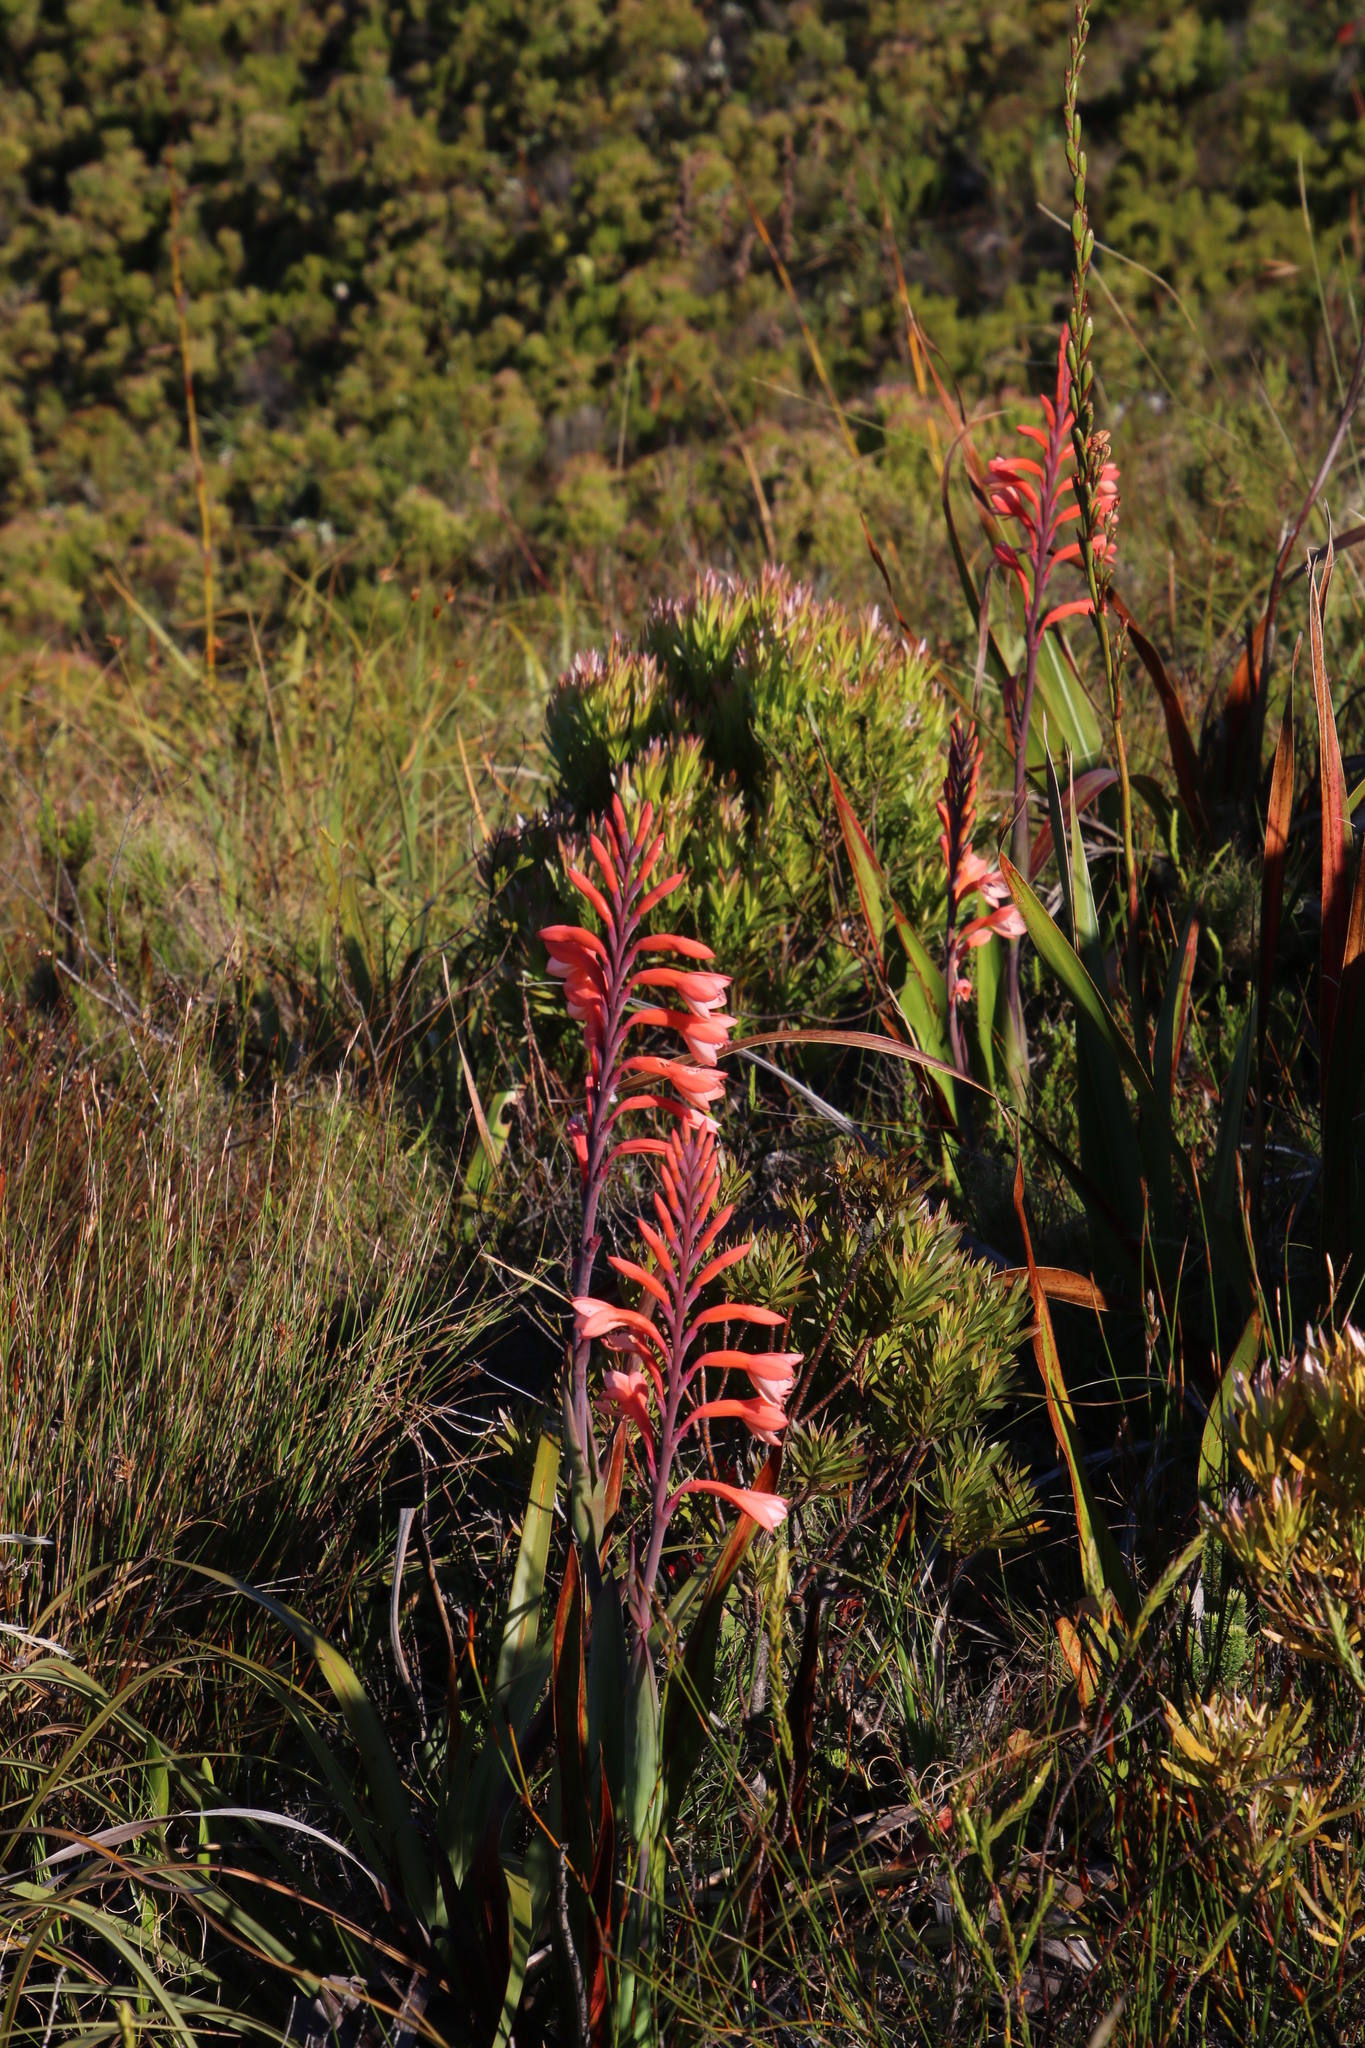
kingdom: Plantae
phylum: Tracheophyta
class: Liliopsida
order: Asparagales
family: Iridaceae
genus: Watsonia
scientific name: Watsonia tabularis
